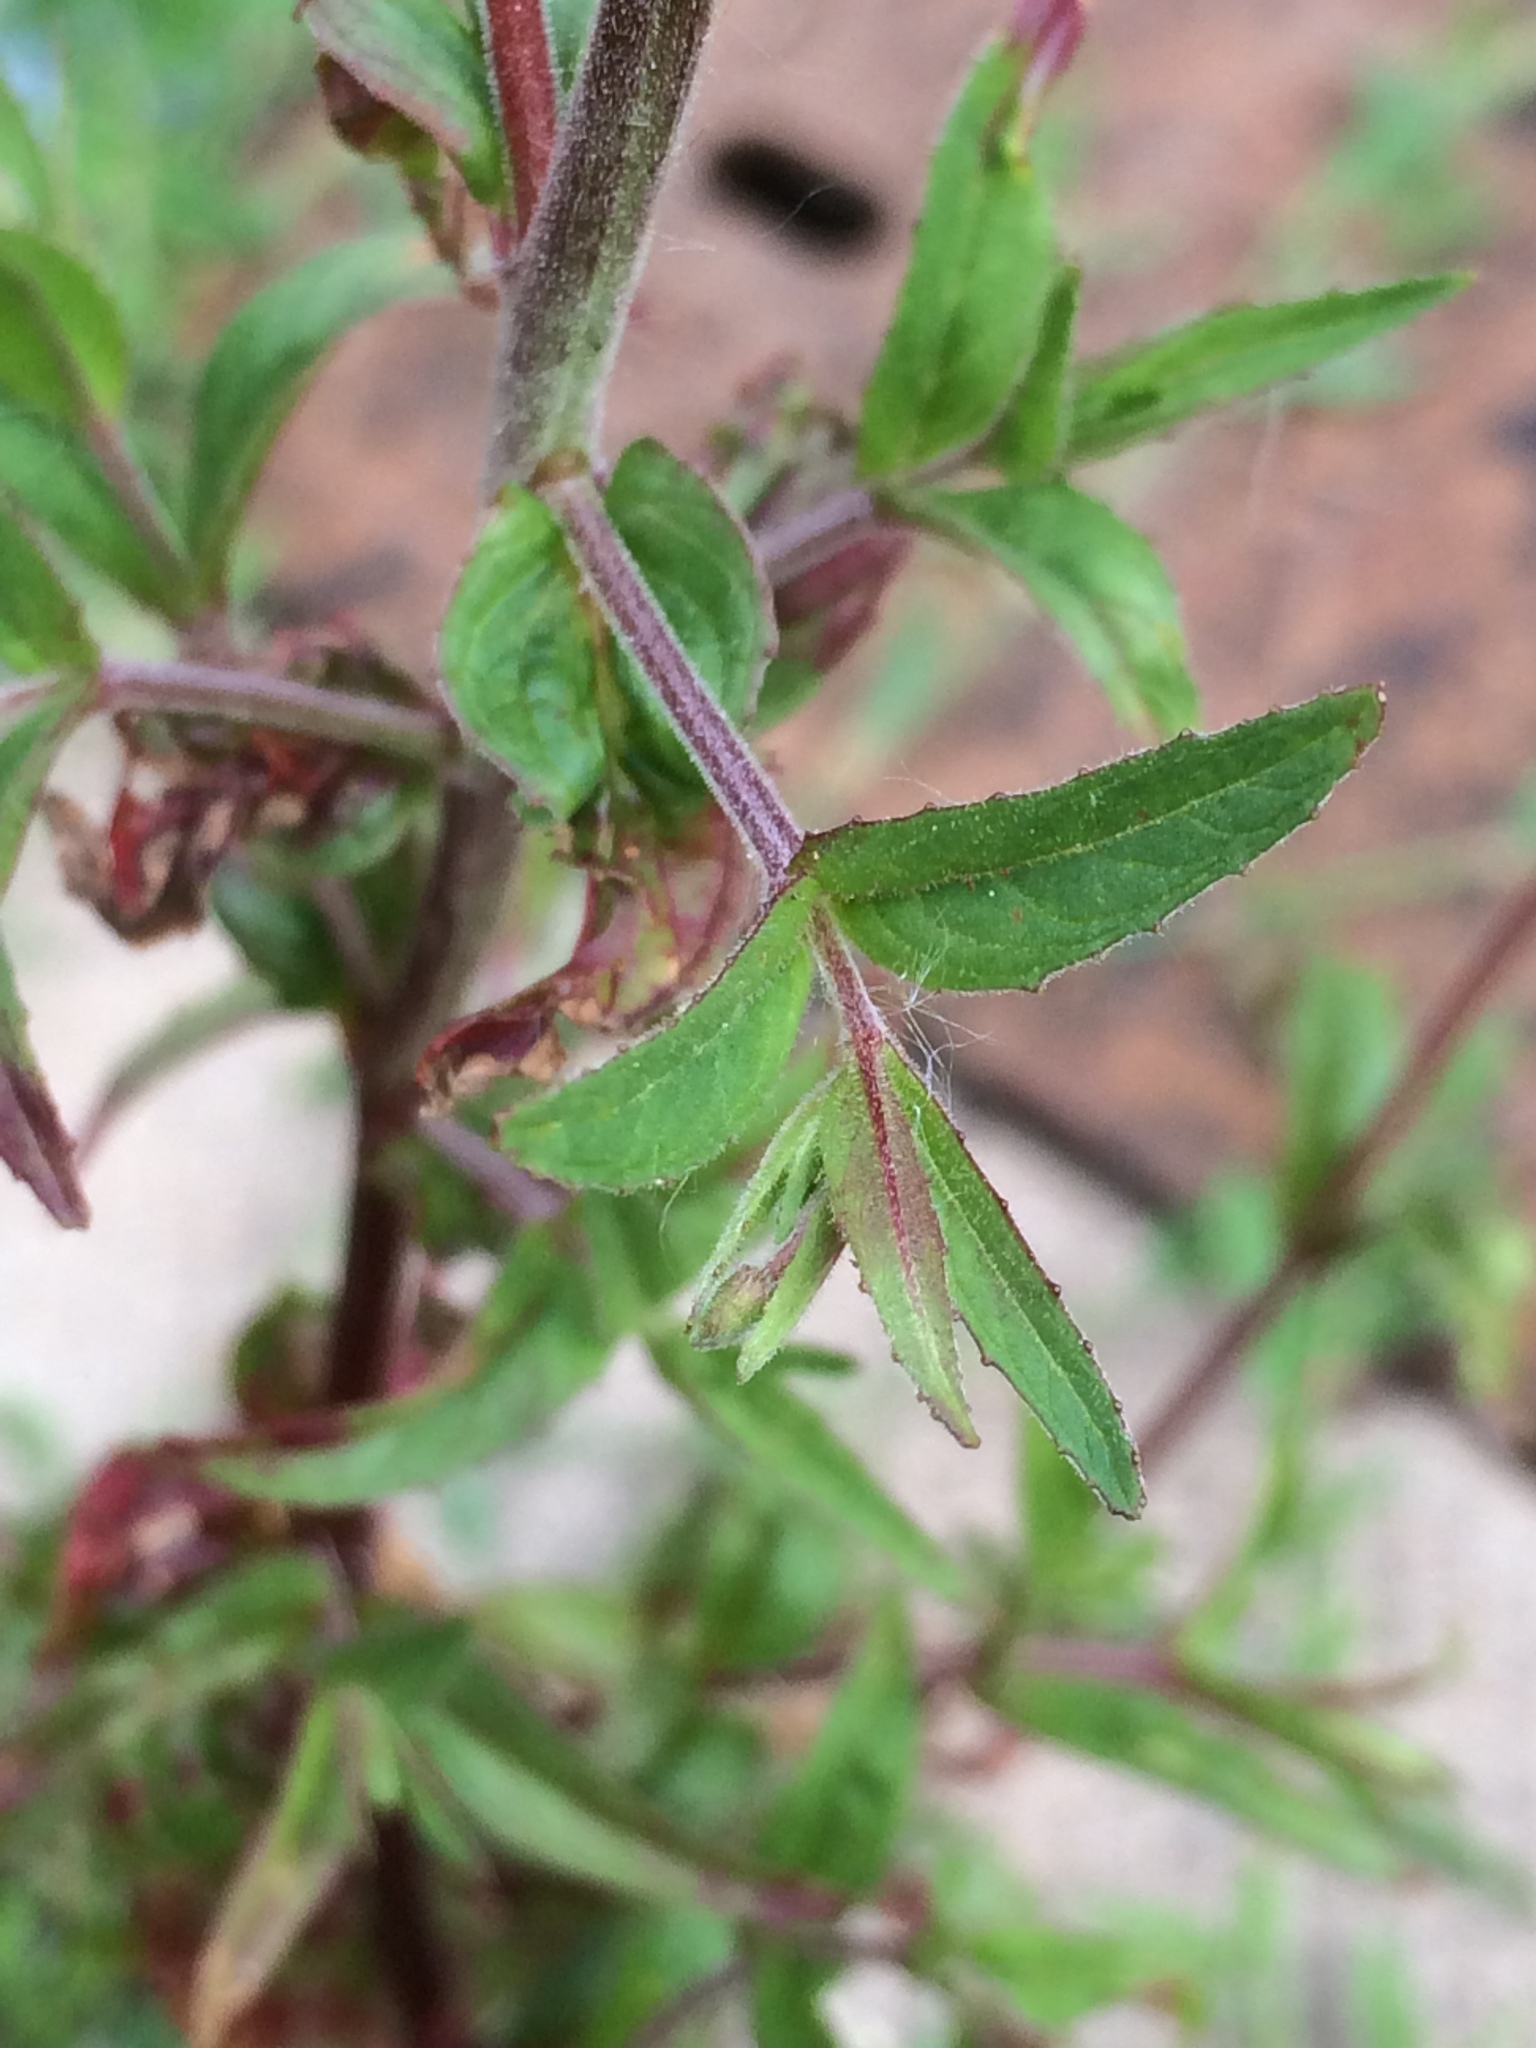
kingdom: Plantae
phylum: Tracheophyta
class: Magnoliopsida
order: Myrtales
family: Onagraceae
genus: Epilobium
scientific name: Epilobium ciliatum
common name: American willowherb
